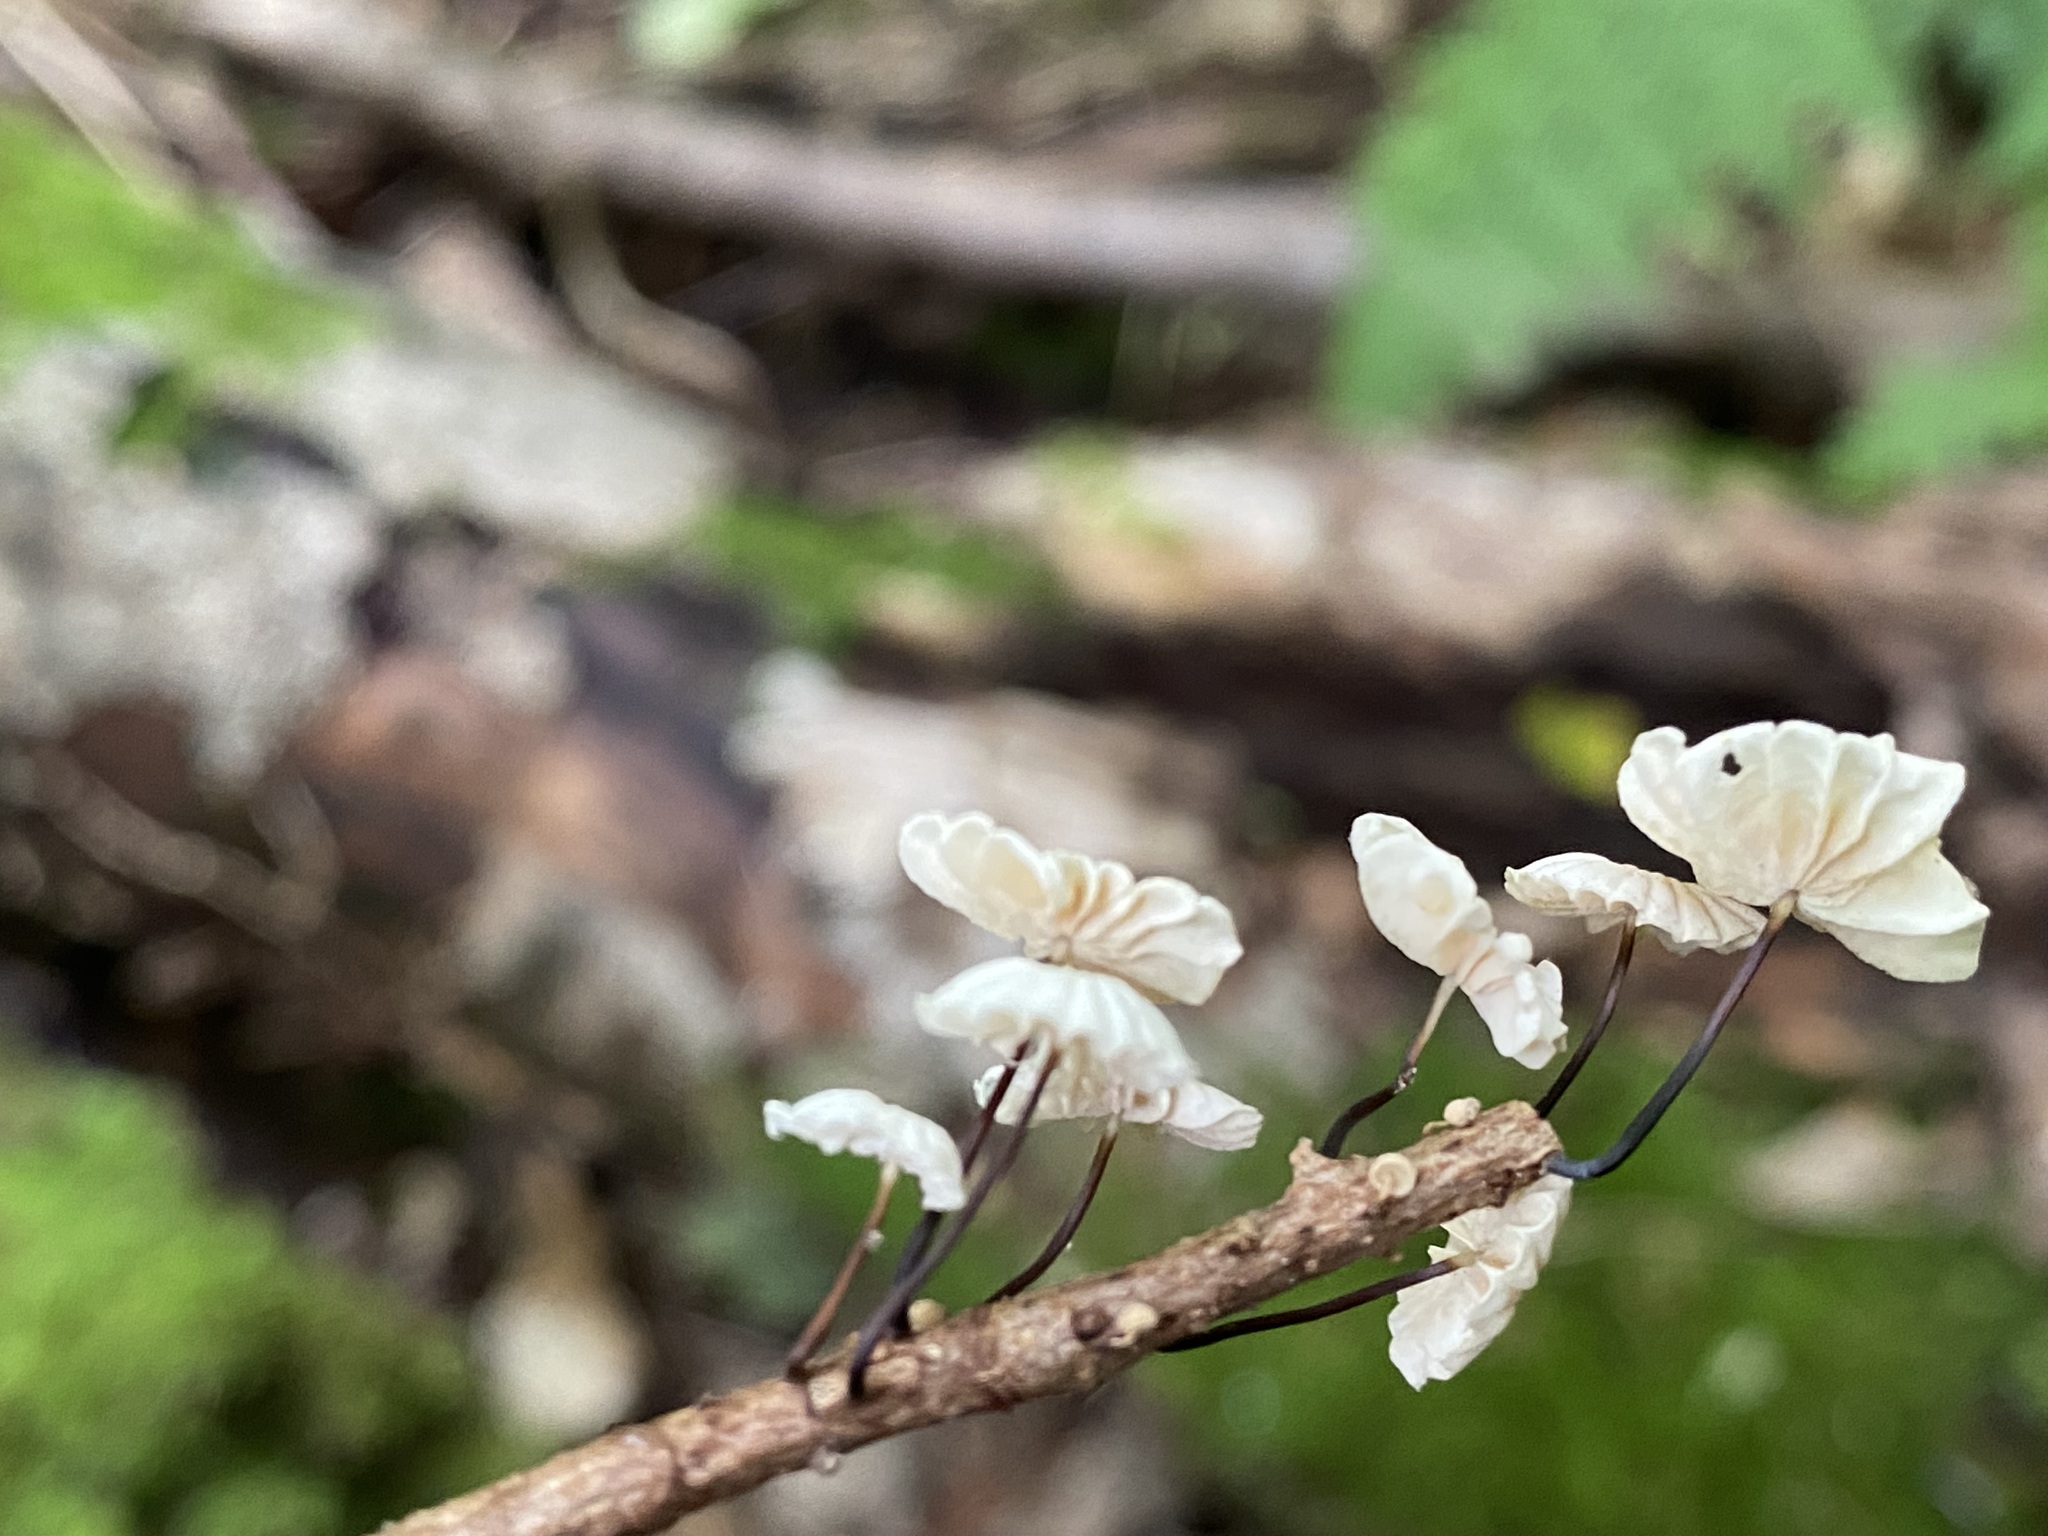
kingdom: Fungi
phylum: Basidiomycota
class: Agaricomycetes
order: Agaricales
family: Marasmiaceae
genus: Marasmius
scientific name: Marasmius rotula
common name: Collared parachute
